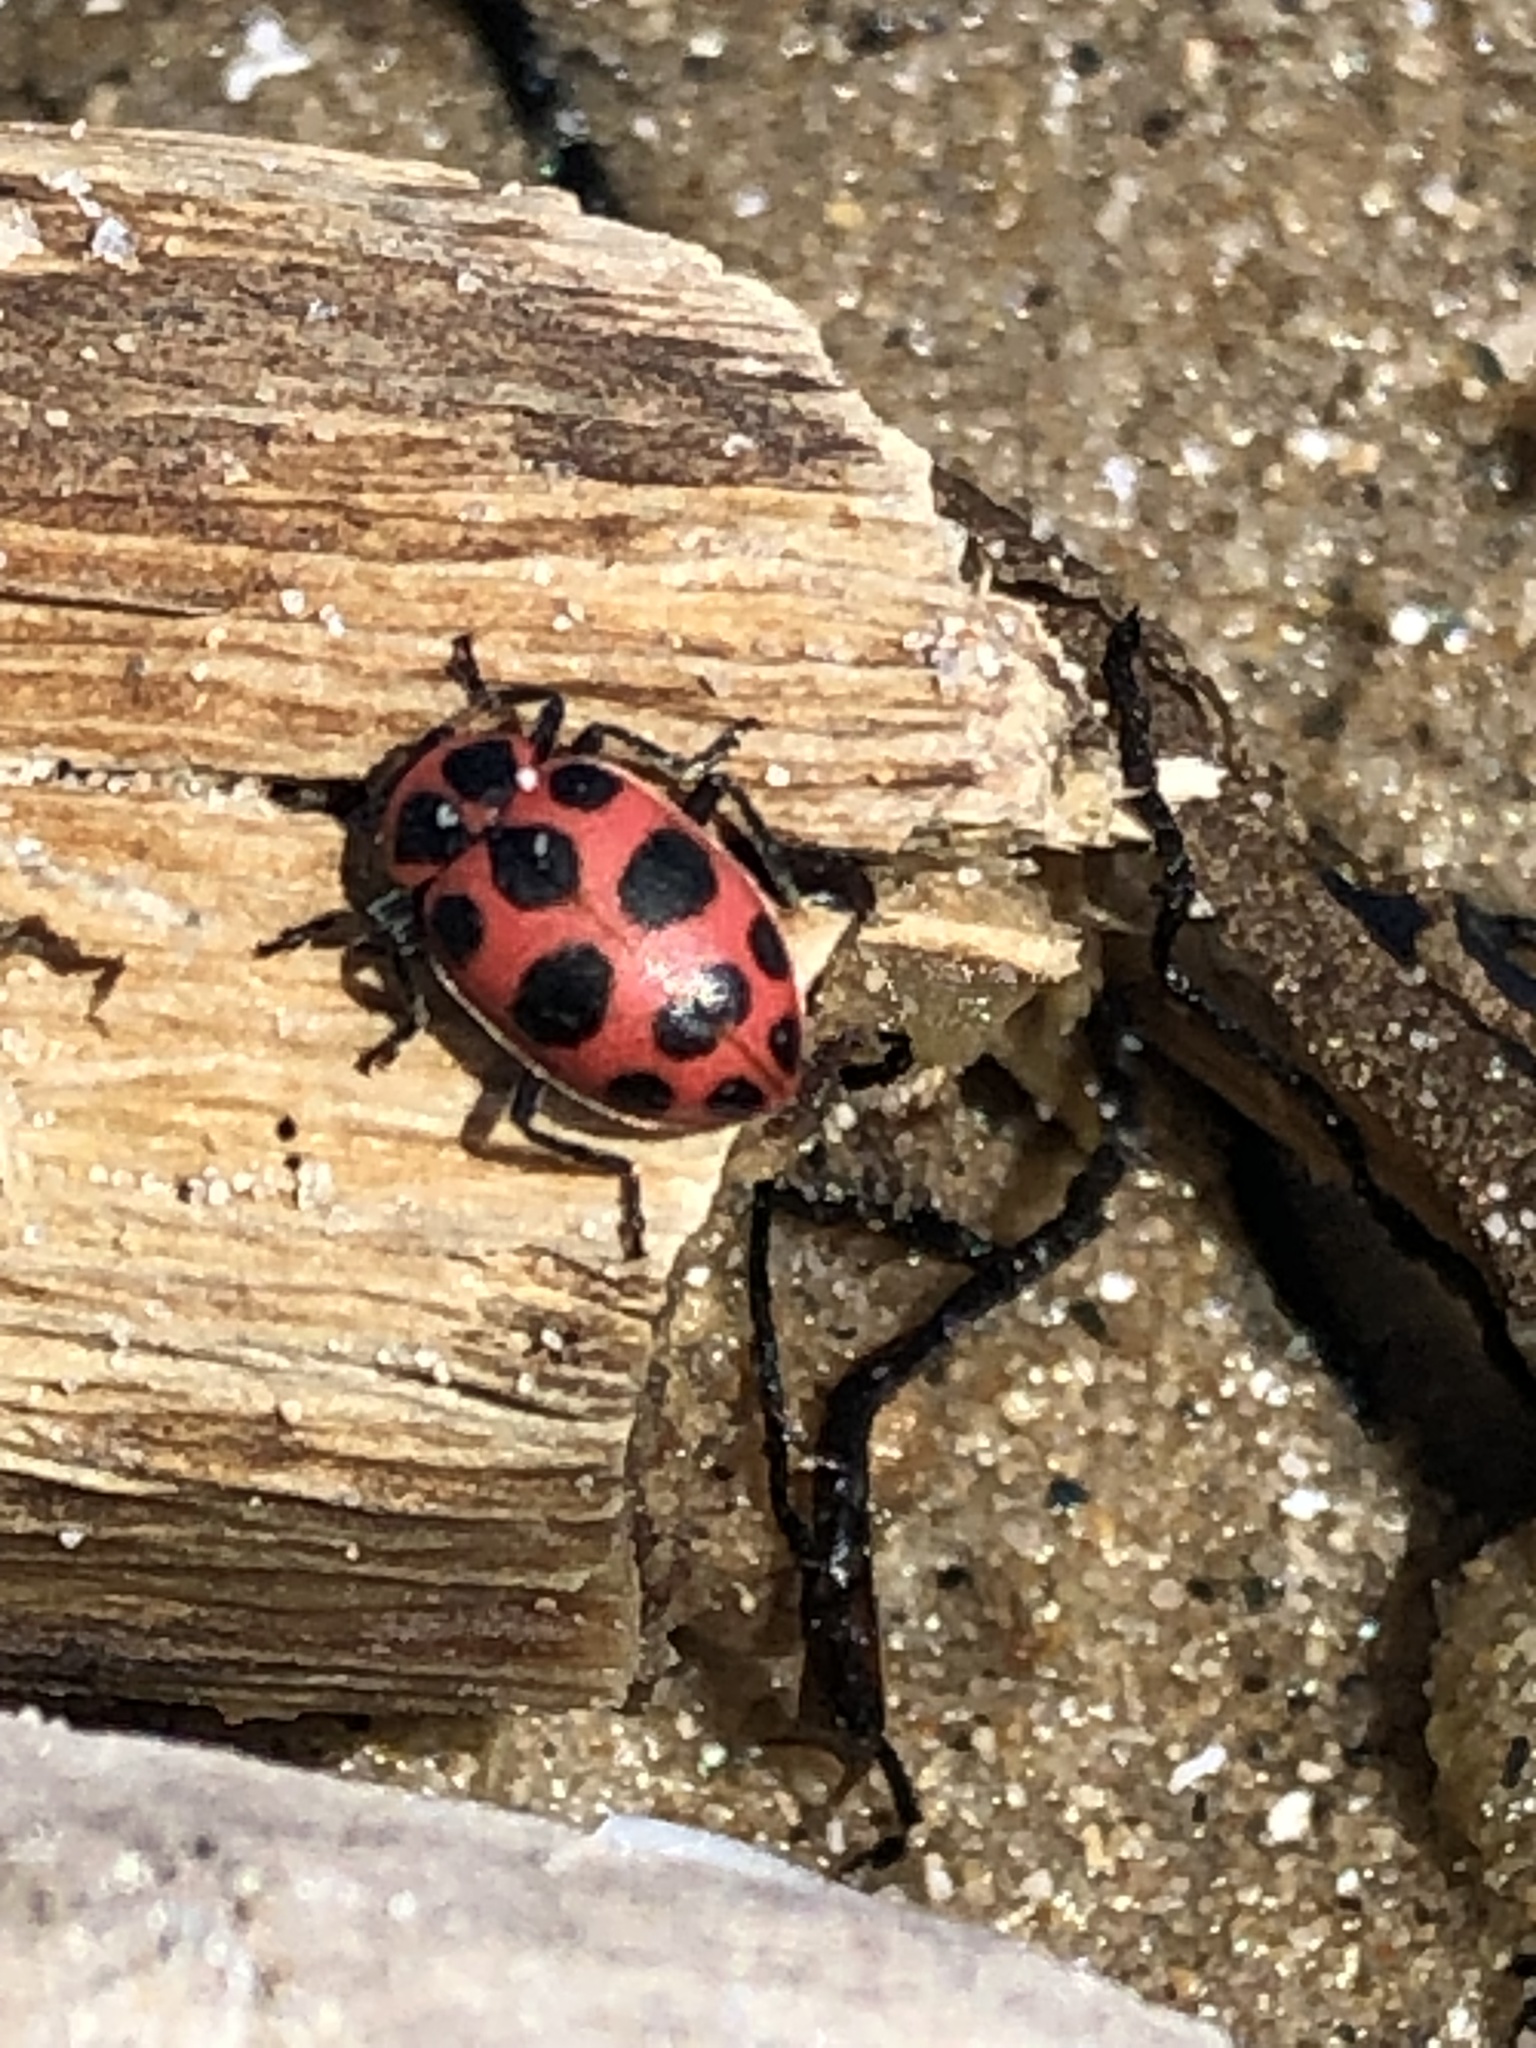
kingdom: Animalia
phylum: Arthropoda
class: Insecta
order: Coleoptera
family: Coccinellidae
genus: Coleomegilla
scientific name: Coleomegilla maculata
